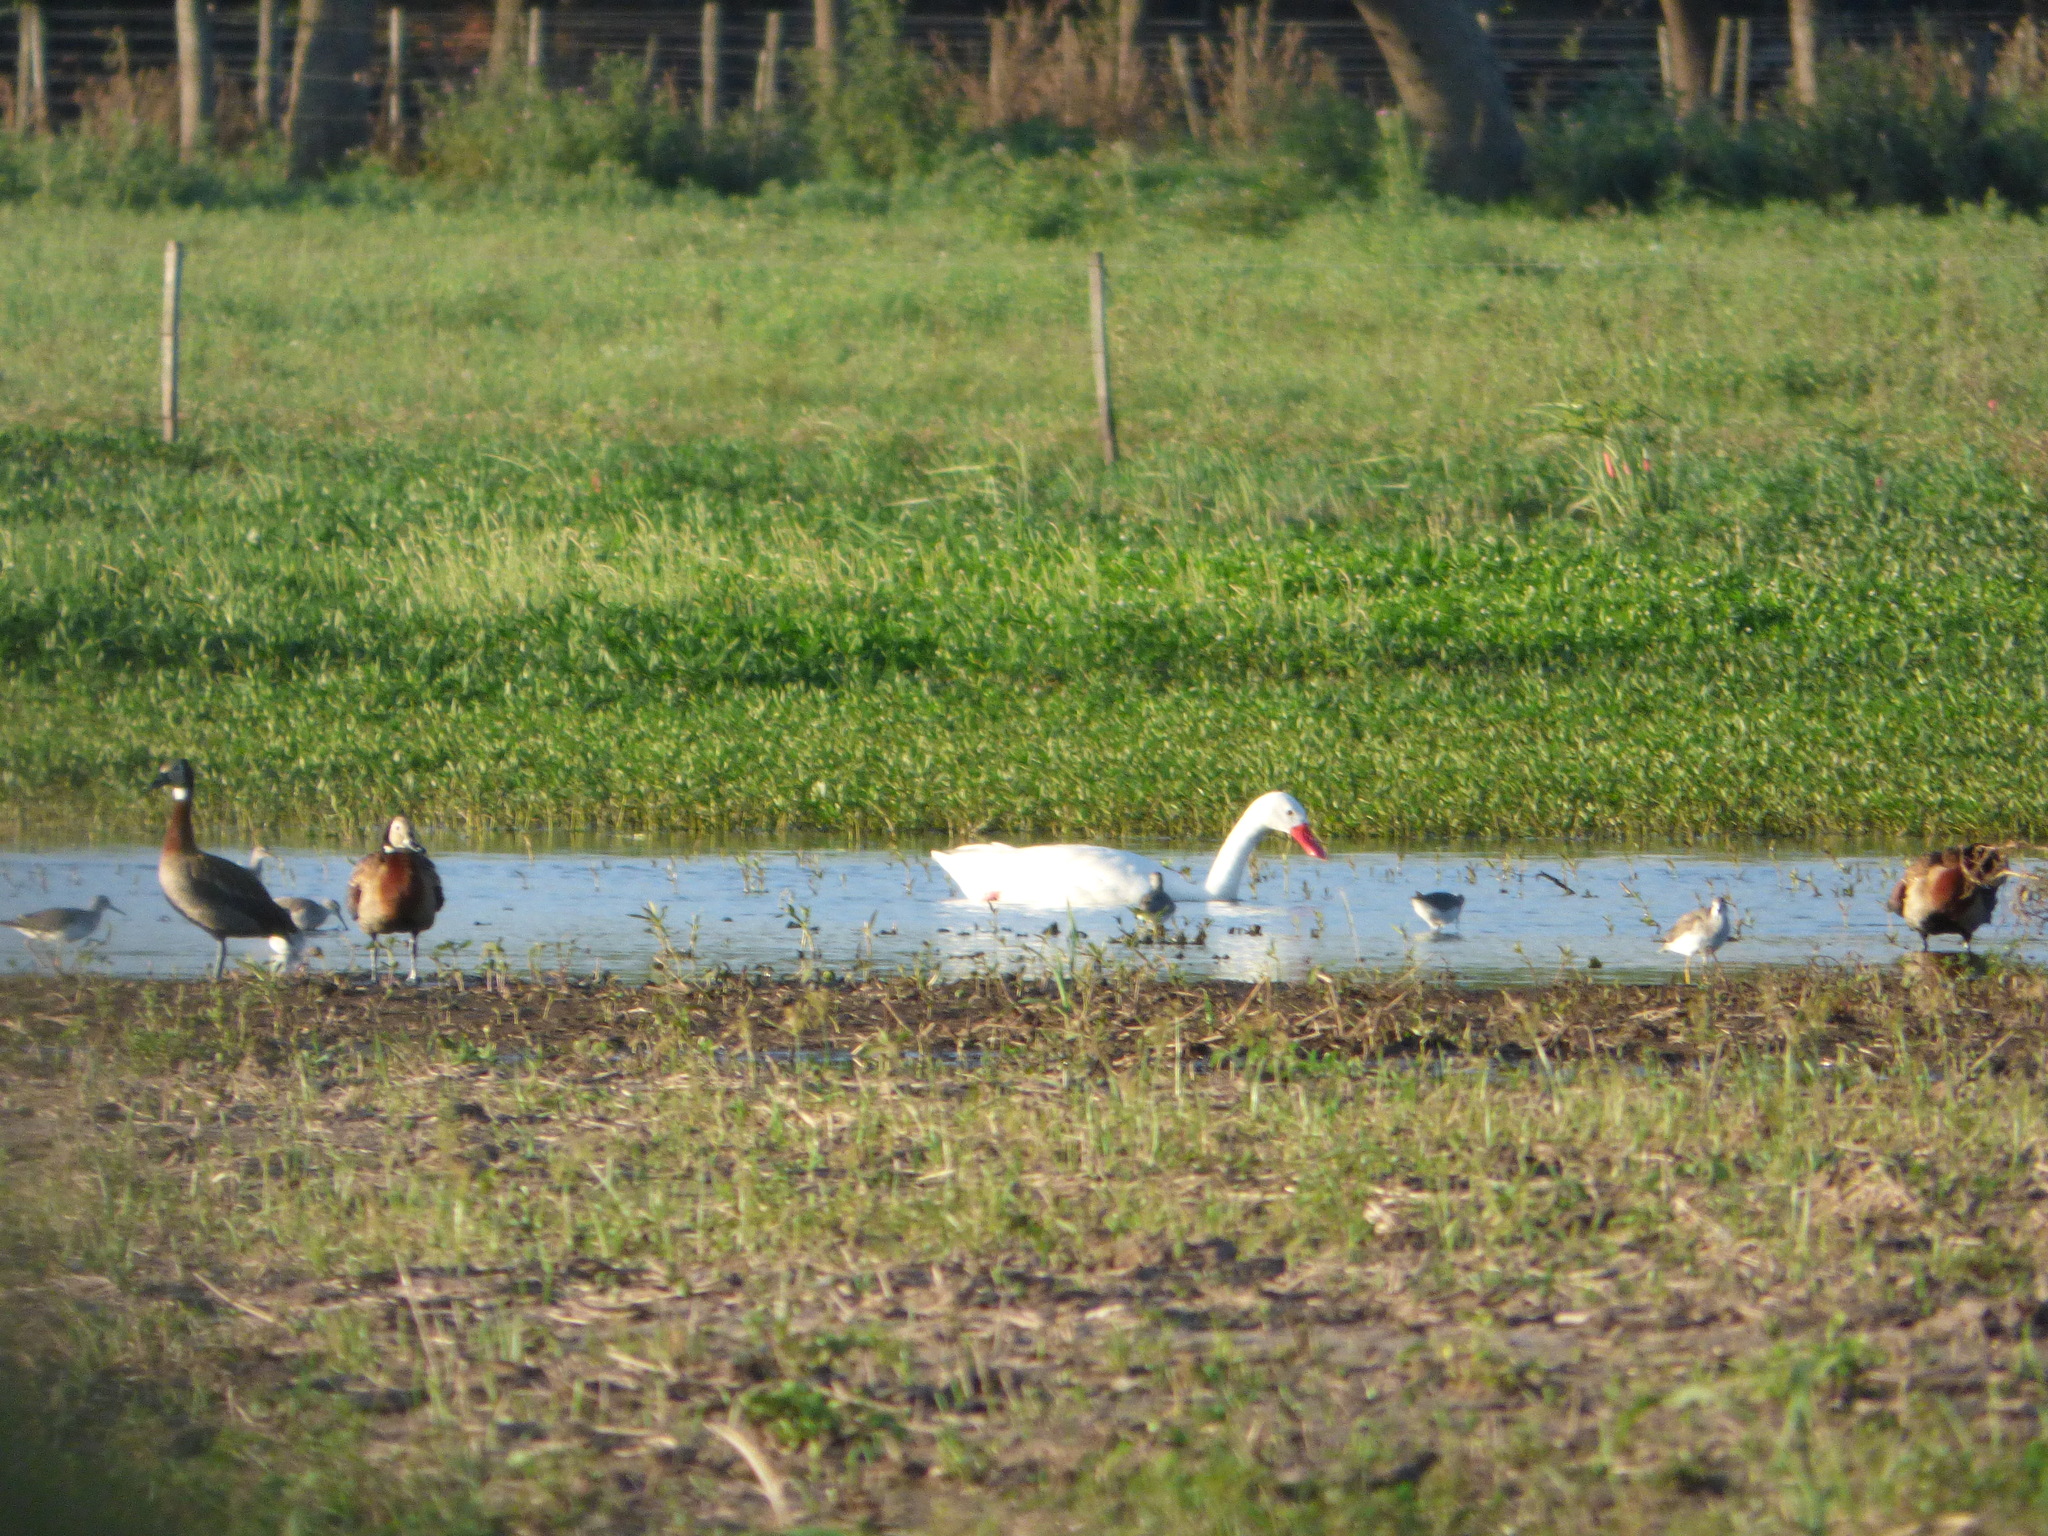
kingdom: Animalia
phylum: Chordata
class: Aves
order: Anseriformes
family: Anatidae
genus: Dendrocygna
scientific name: Dendrocygna viduata
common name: White-faced whistling duck
